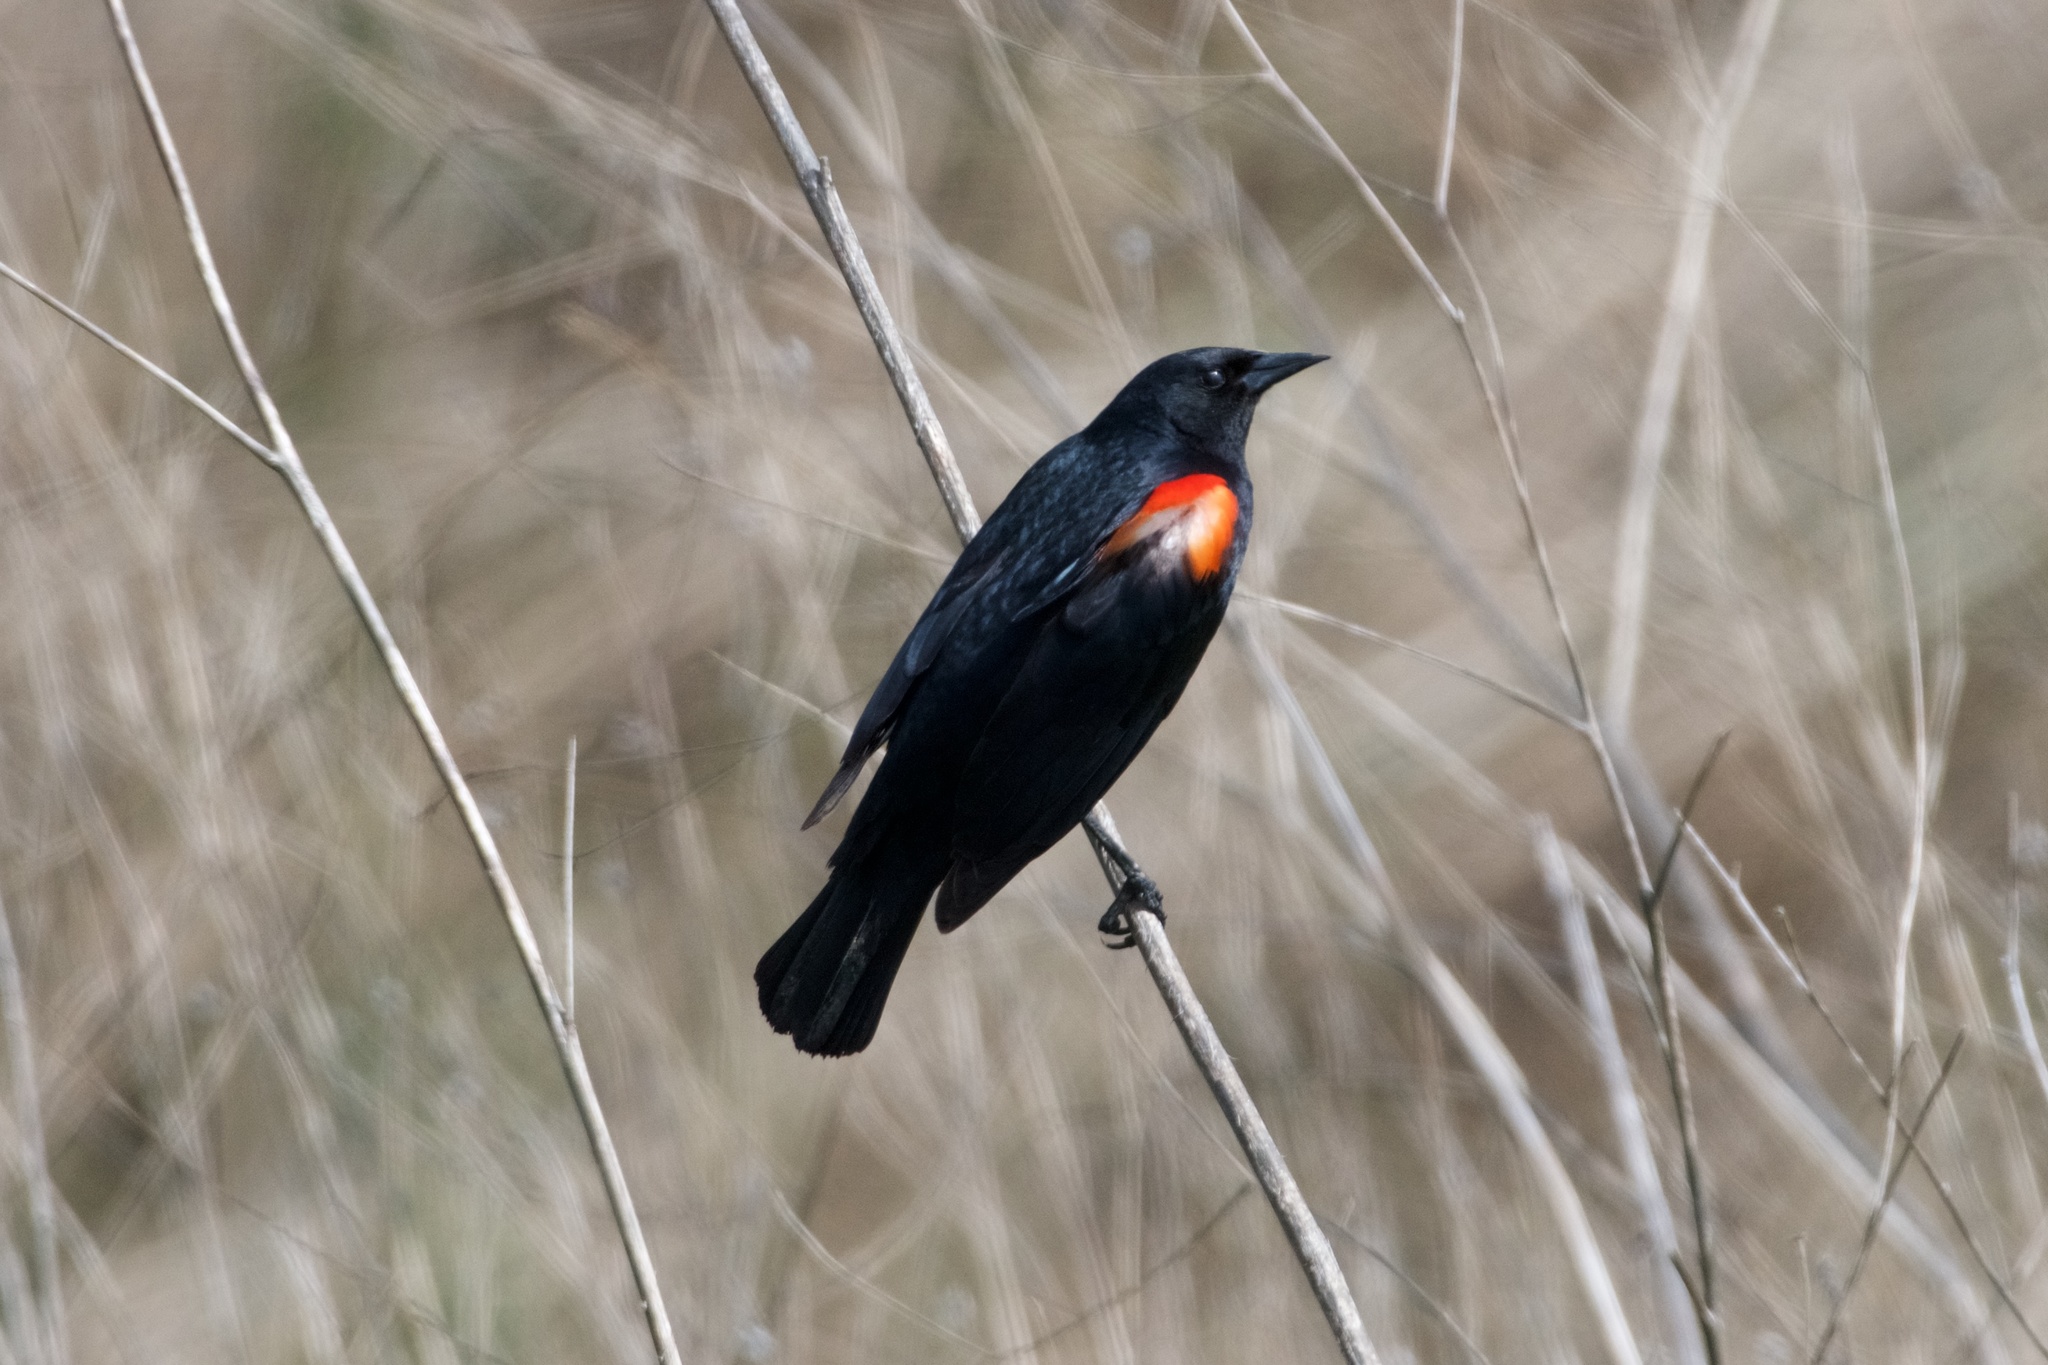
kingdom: Animalia
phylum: Chordata
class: Aves
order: Passeriformes
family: Icteridae
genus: Agelaius
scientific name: Agelaius phoeniceus
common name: Red-winged blackbird
